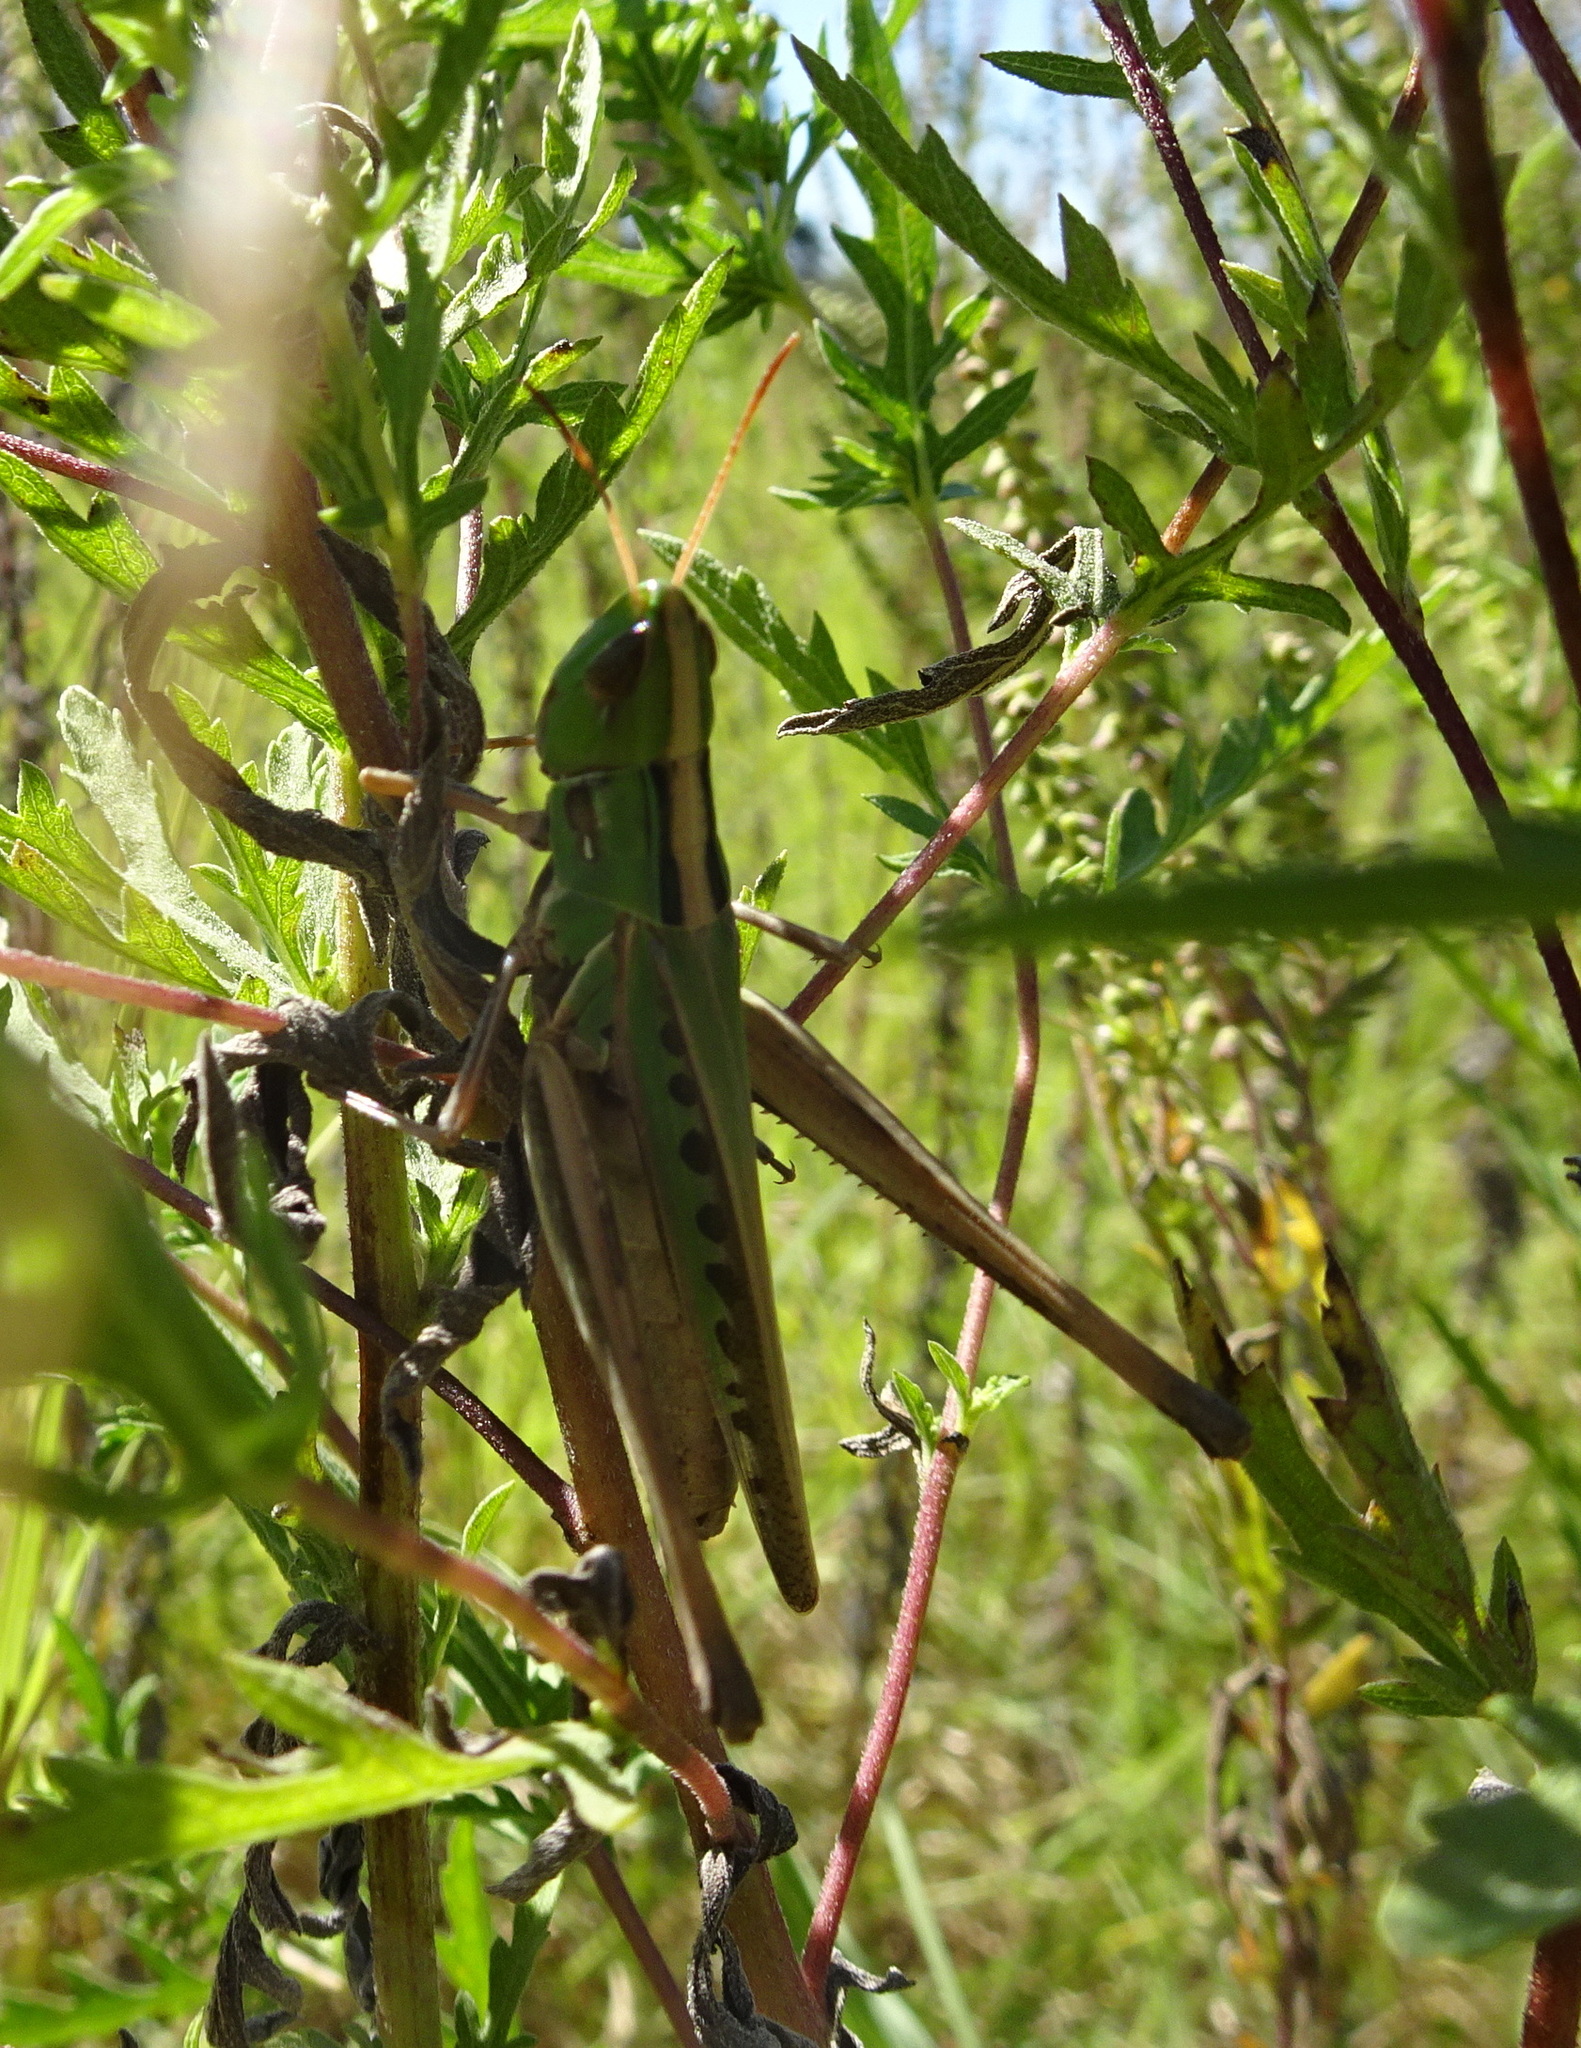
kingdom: Animalia
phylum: Arthropoda
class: Insecta
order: Orthoptera
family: Acrididae
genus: Syrbula
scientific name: Syrbula admirabilis
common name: Handsome grasshopper
